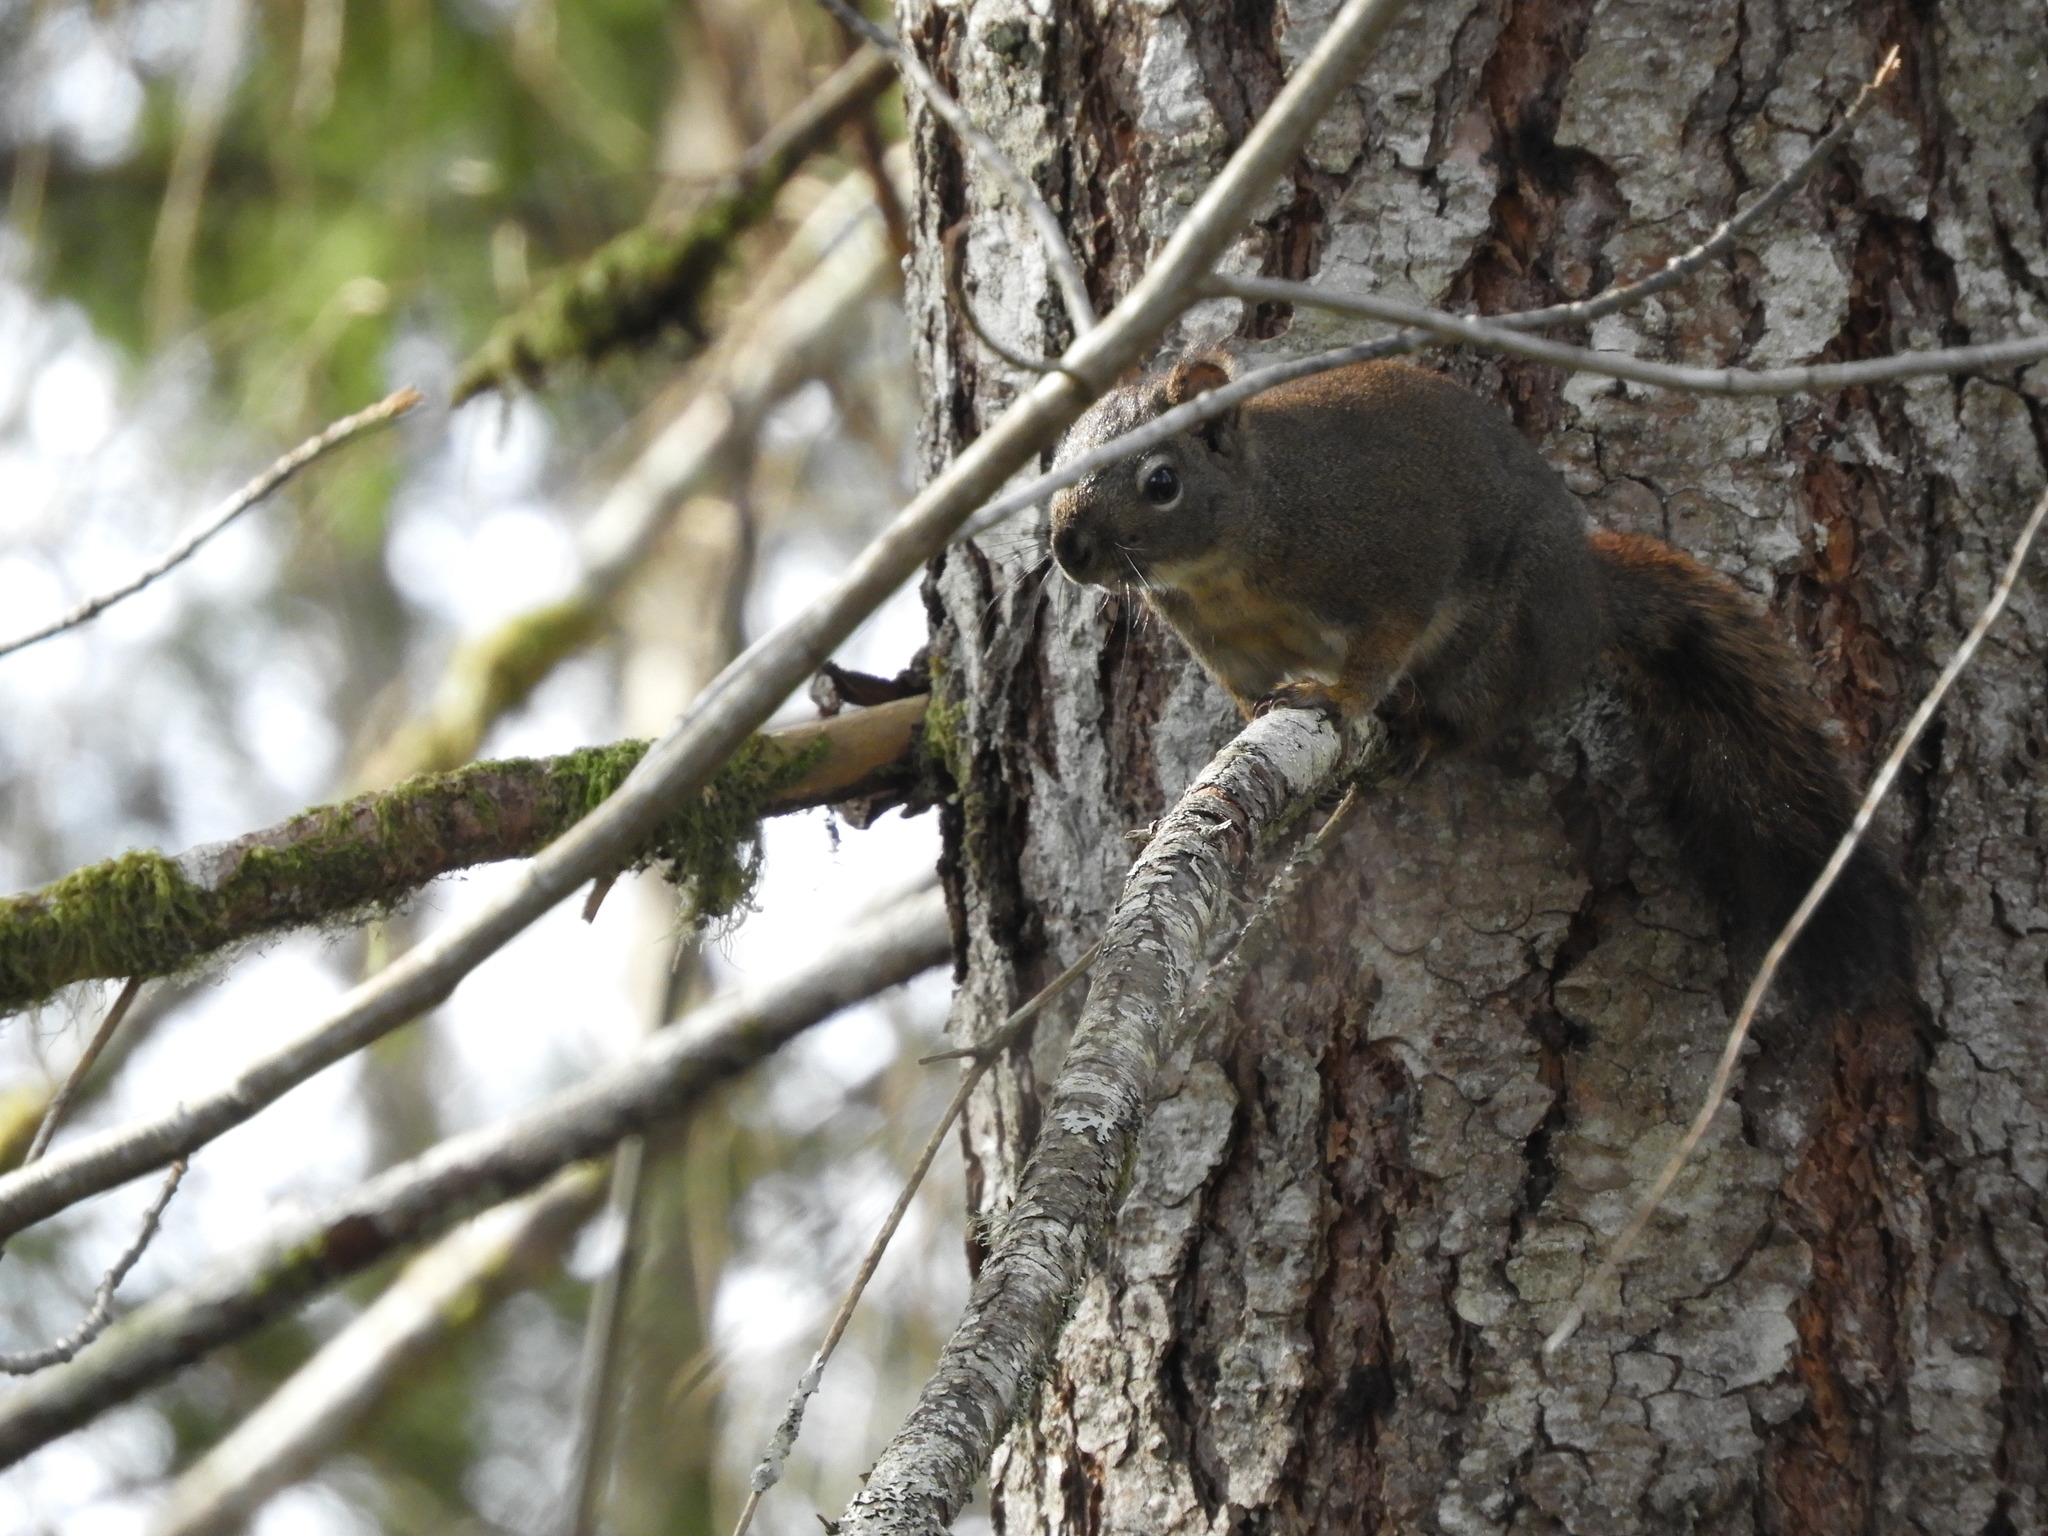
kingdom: Animalia
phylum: Chordata
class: Mammalia
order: Rodentia
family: Sciuridae
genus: Tamiasciurus
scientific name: Tamiasciurus hudsonicus
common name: Red squirrel
